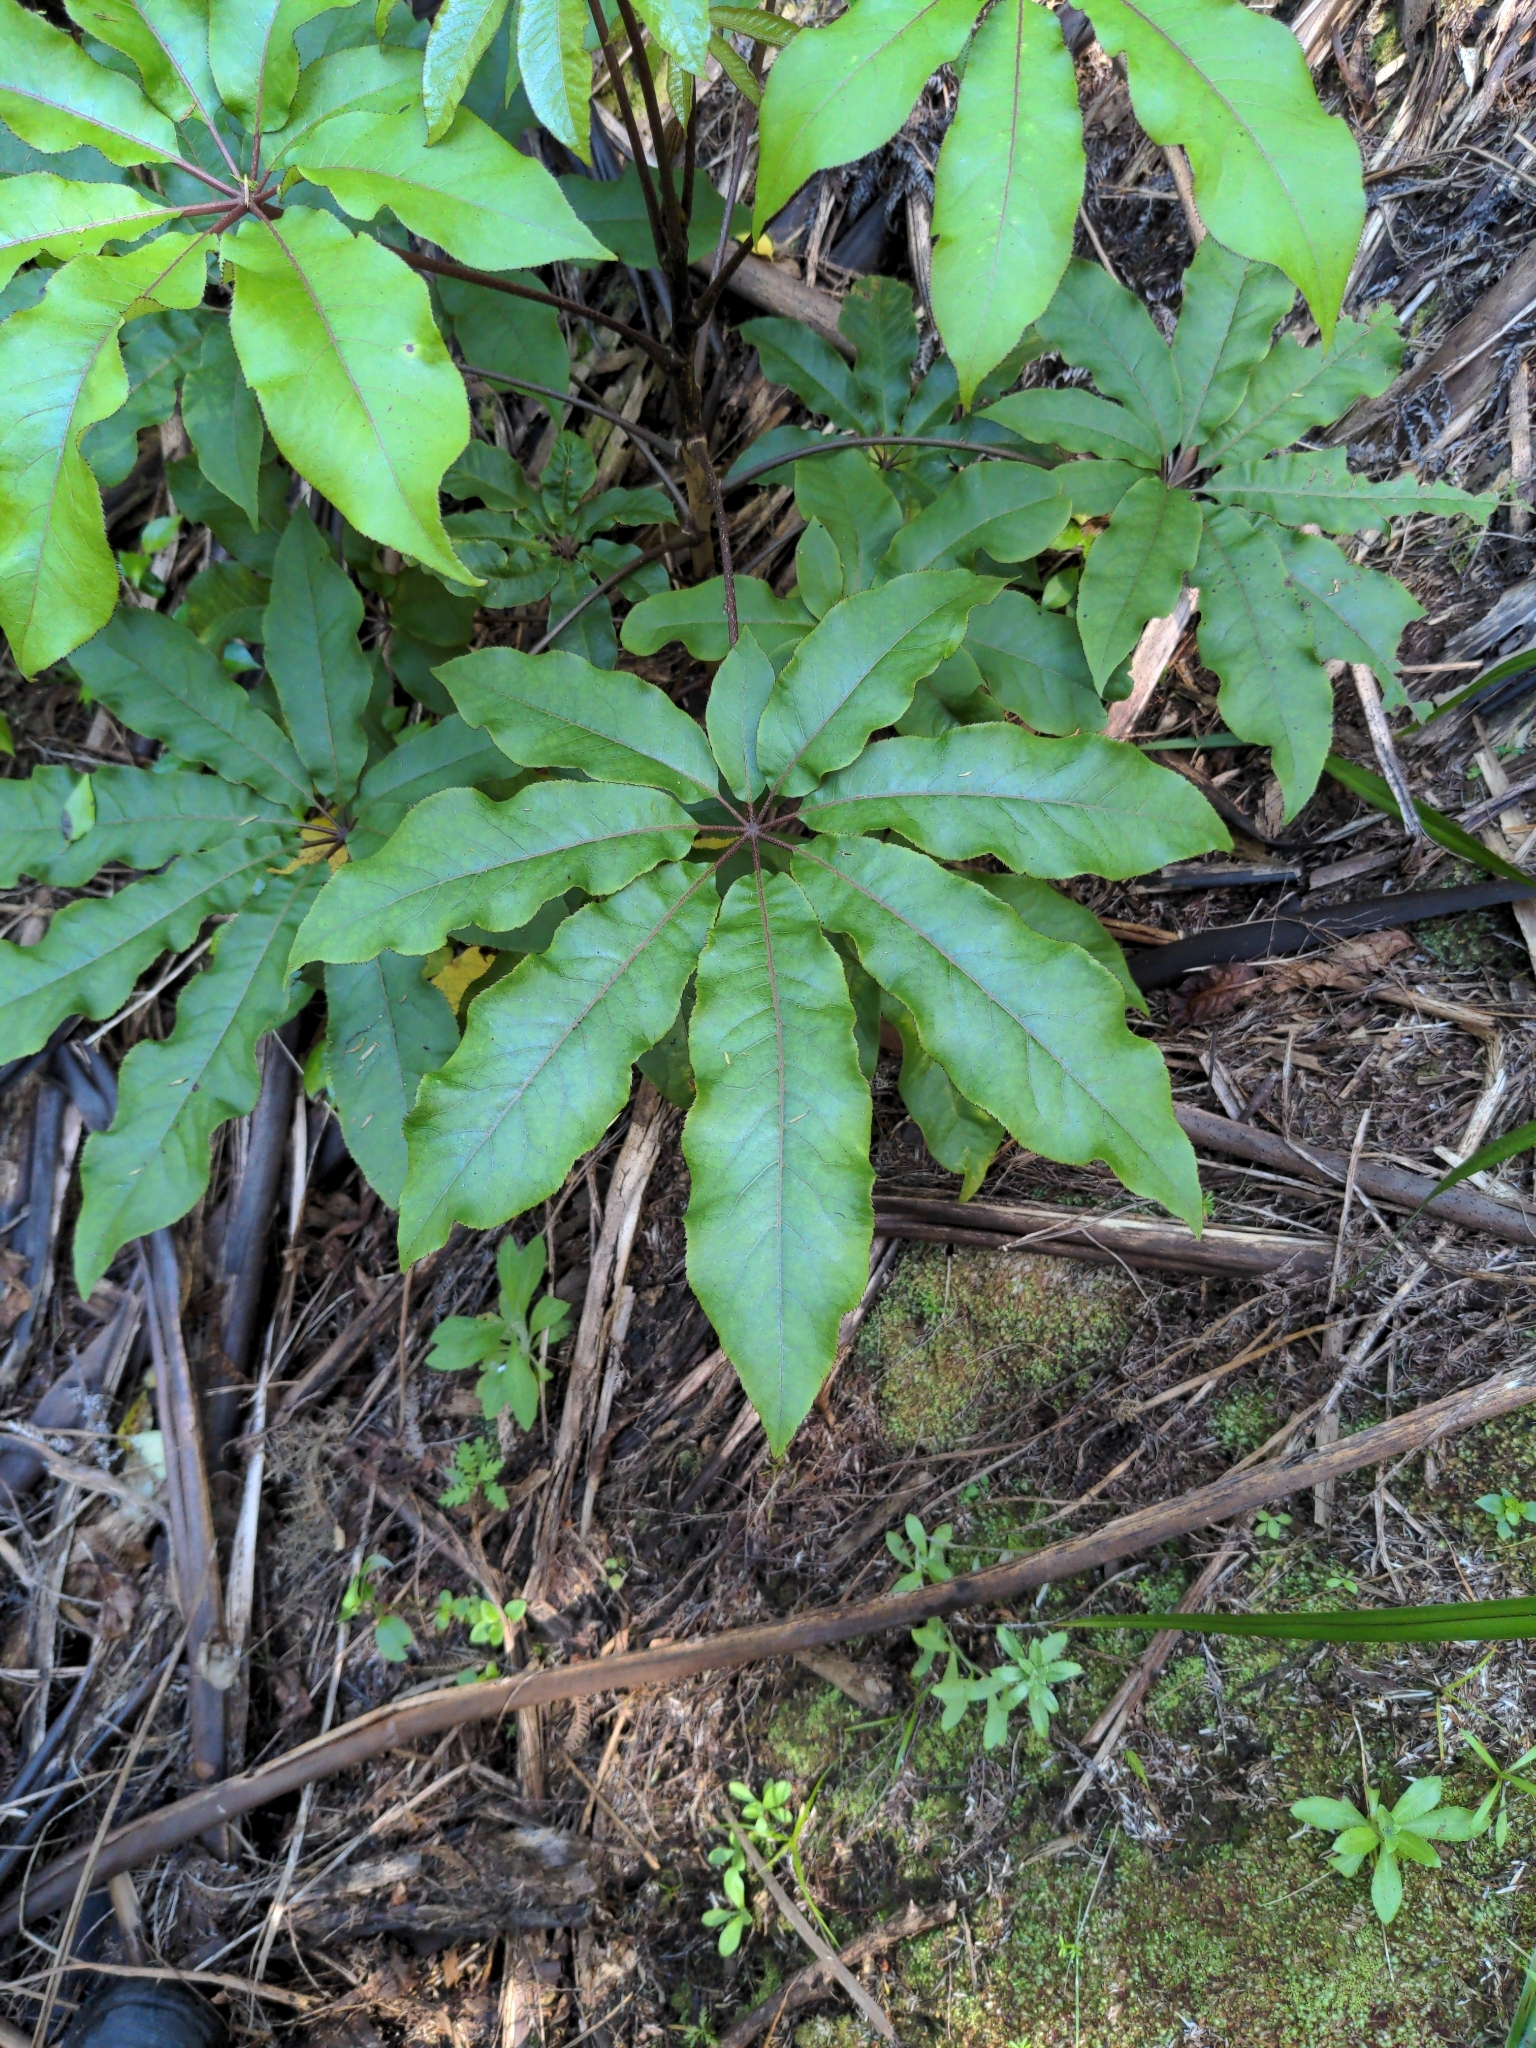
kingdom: Plantae
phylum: Tracheophyta
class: Magnoliopsida
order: Apiales
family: Araliaceae
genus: Schefflera
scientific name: Schefflera digitata
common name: Pate
